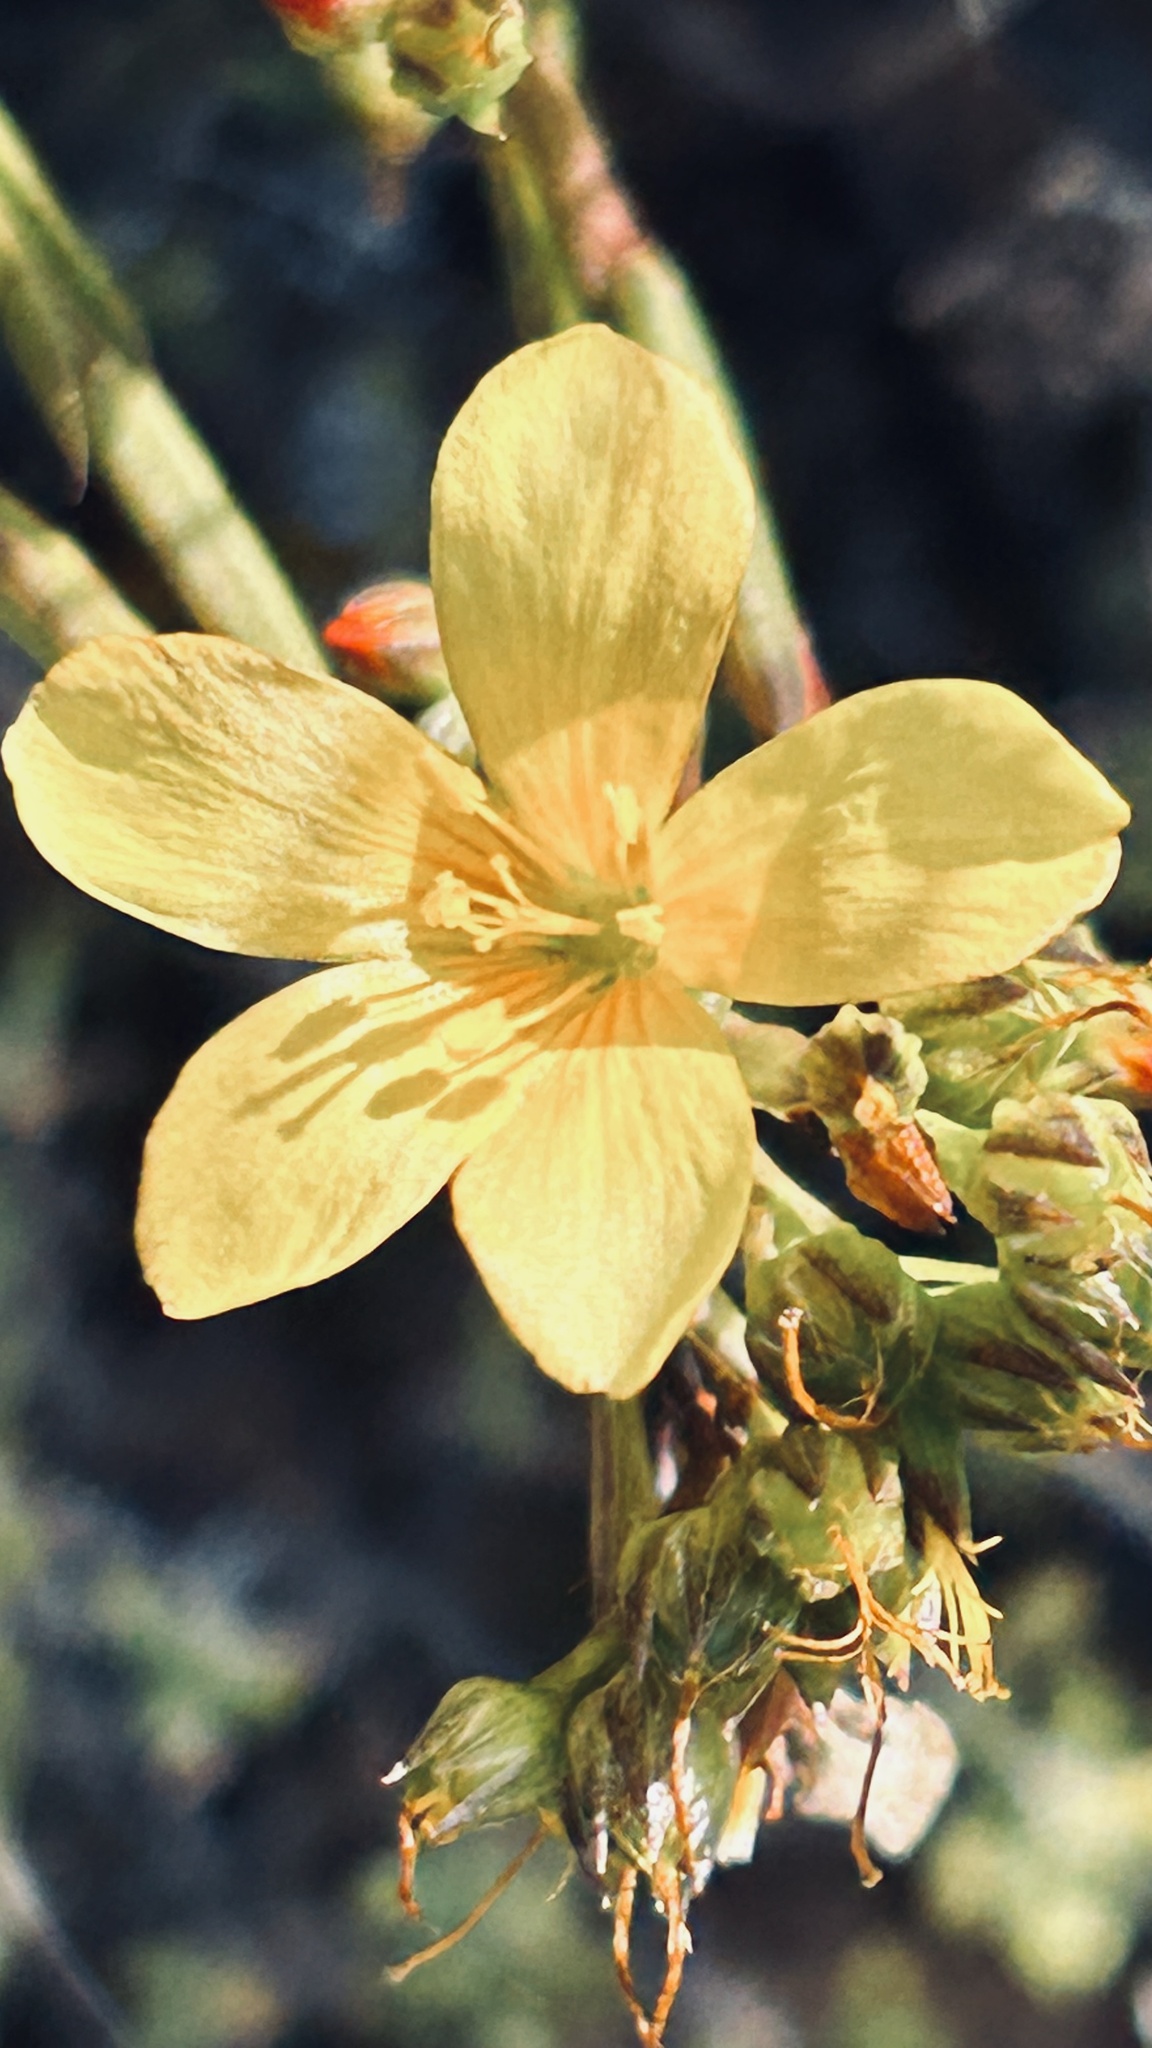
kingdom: Plantae
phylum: Tracheophyta
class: Magnoliopsida
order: Malpighiales
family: Linaceae
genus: Linum
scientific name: Linum africanum
